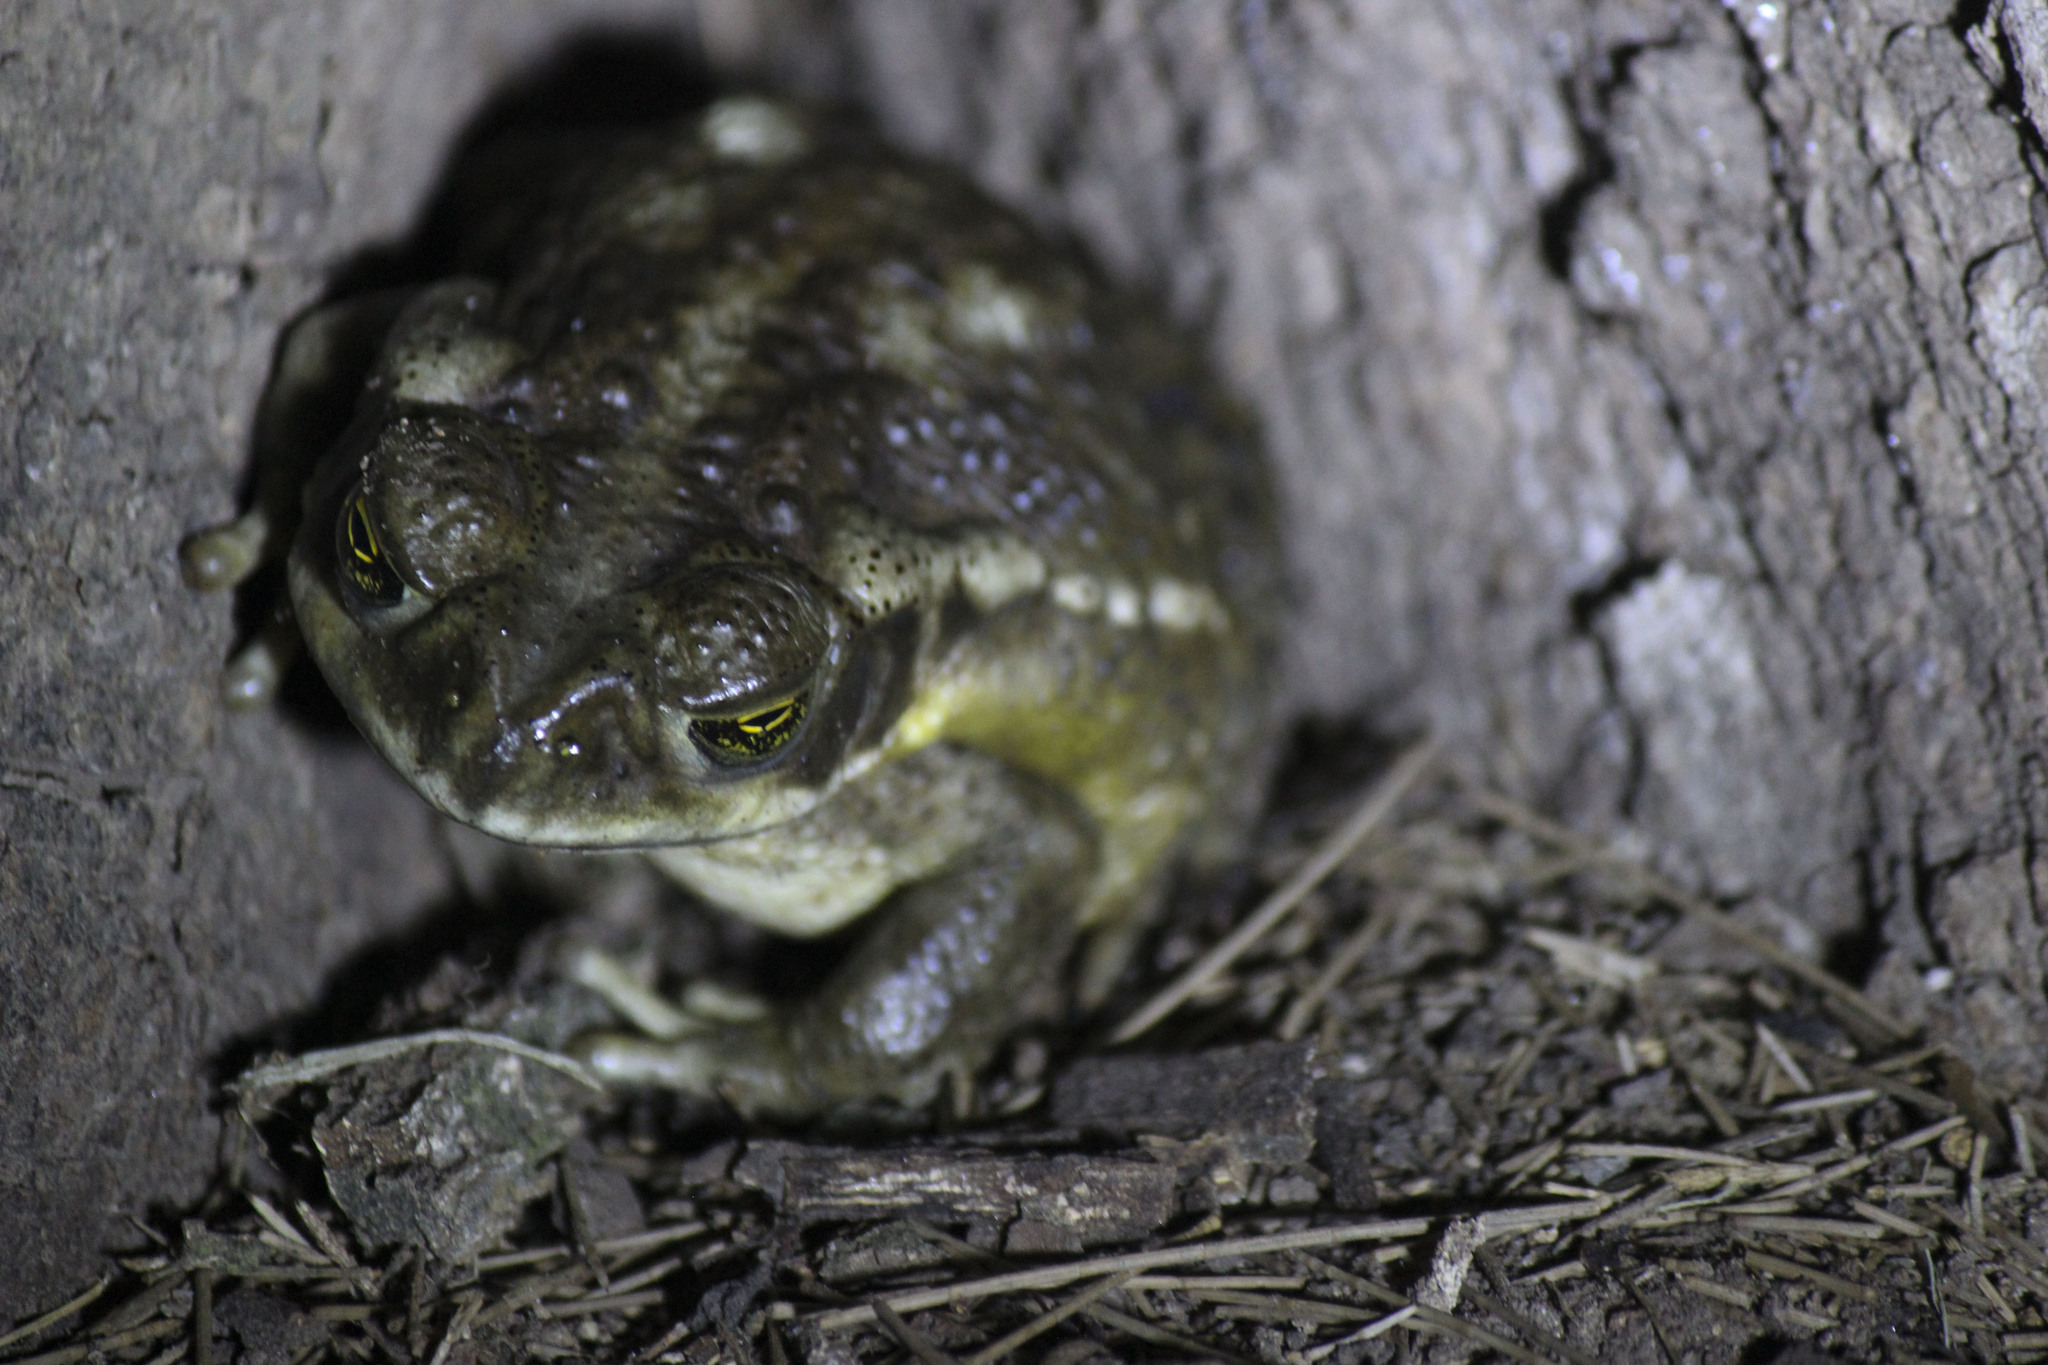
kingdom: Animalia
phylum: Chordata
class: Amphibia
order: Anura
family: Bufonidae
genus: Rhinella
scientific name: Rhinella arenarum
